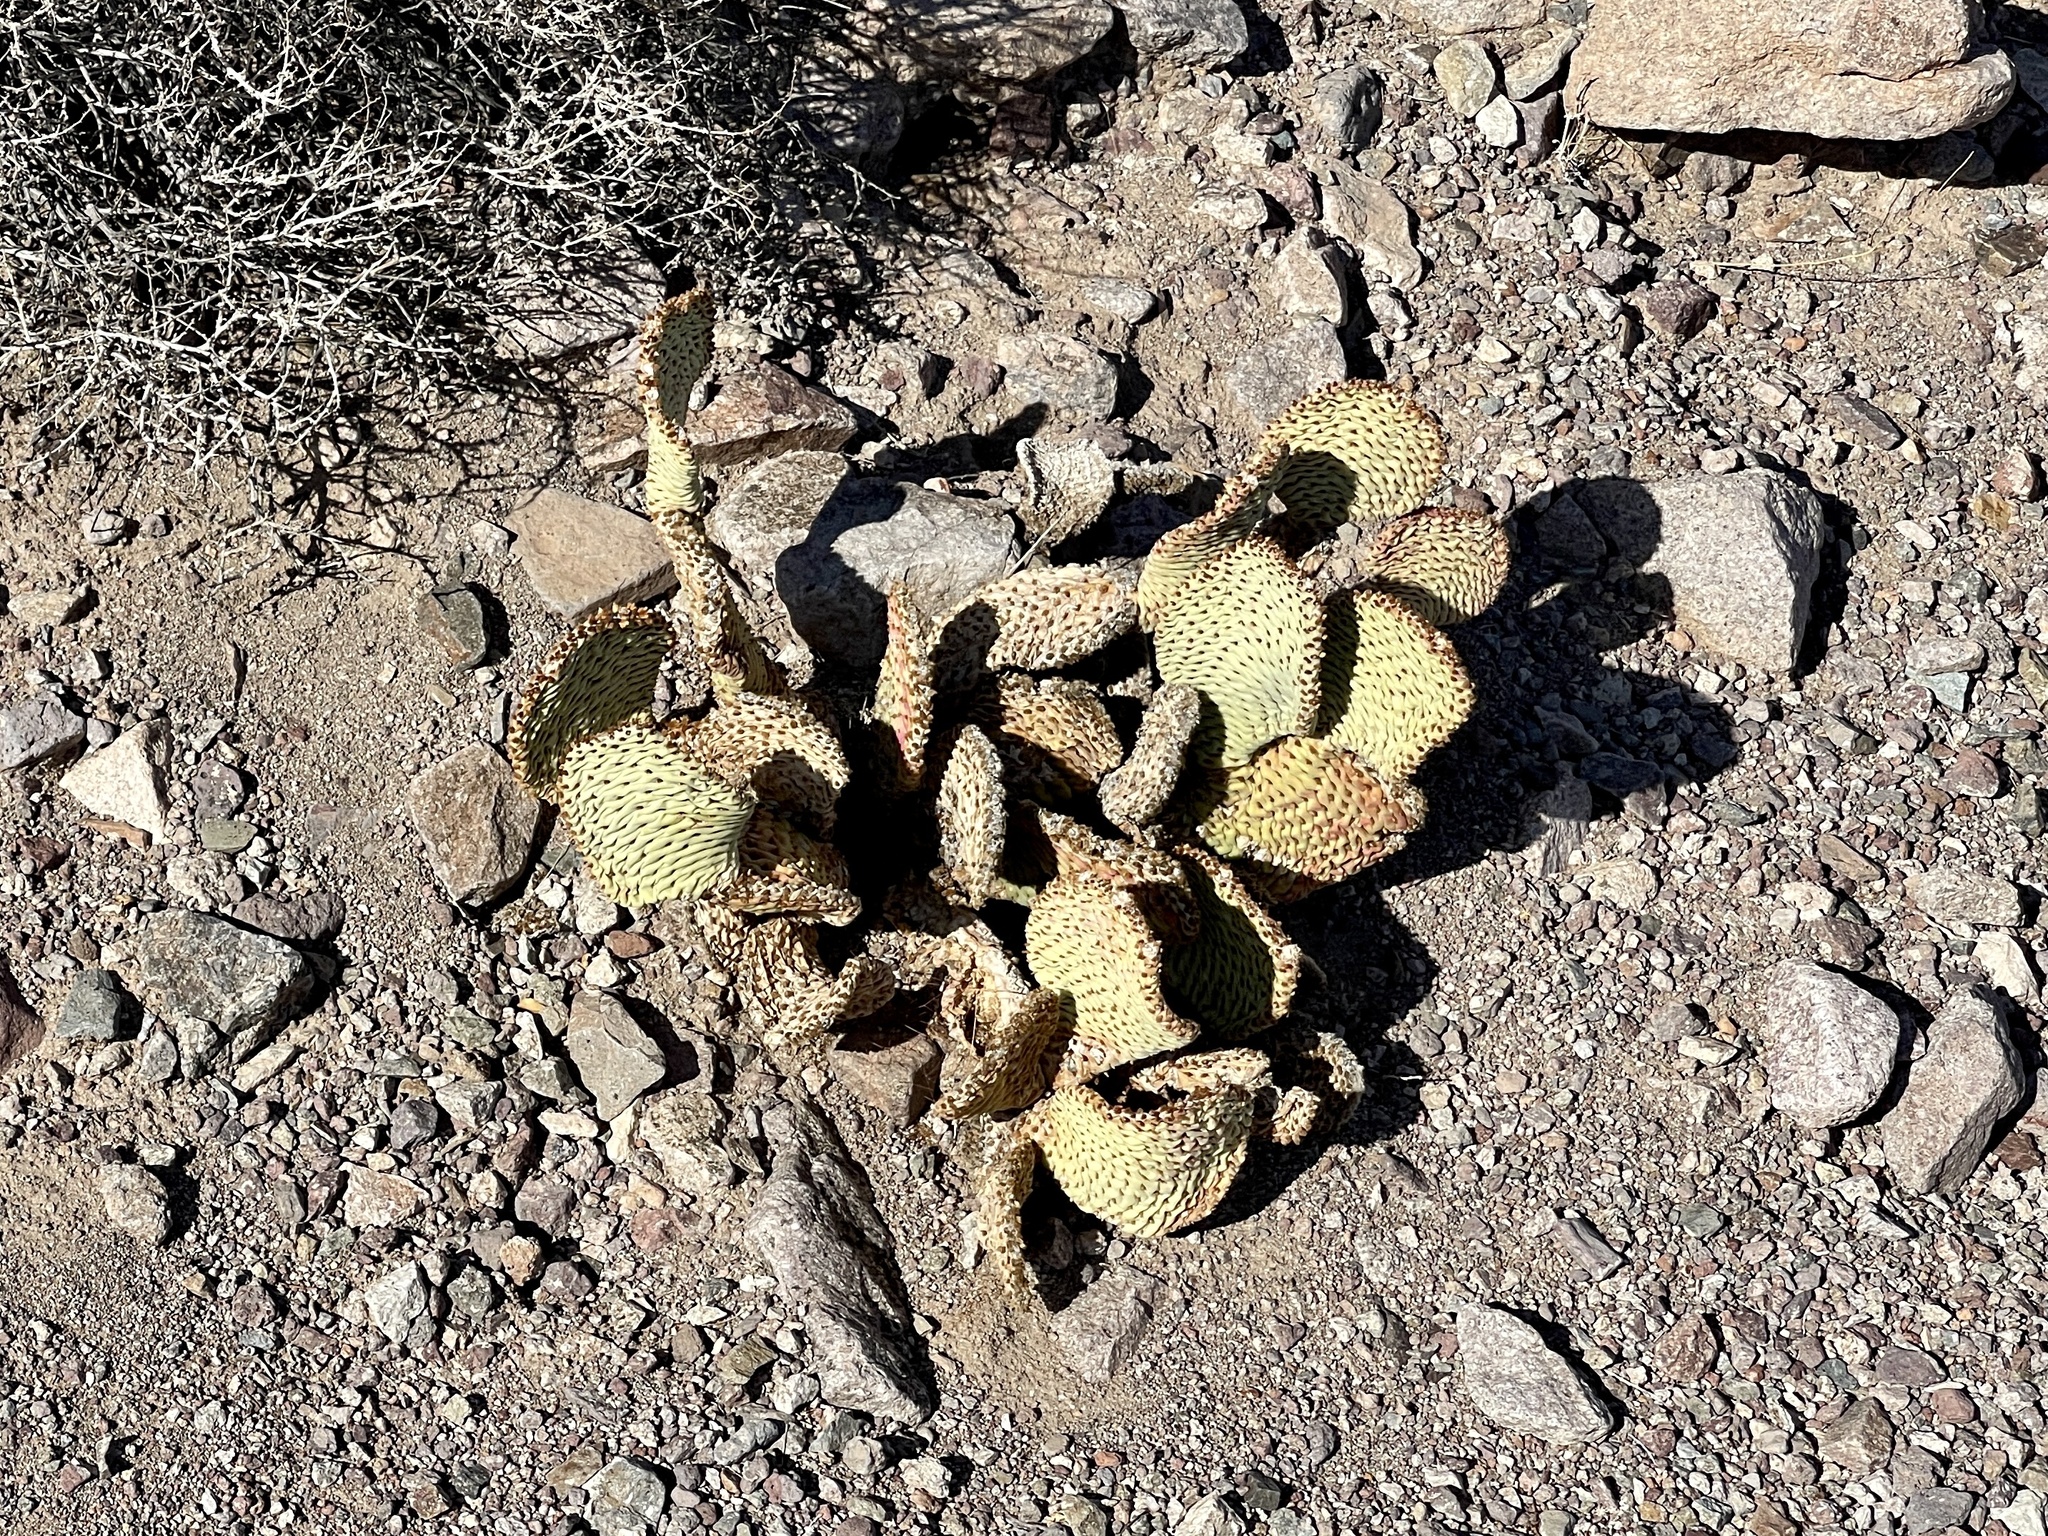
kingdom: Plantae
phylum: Tracheophyta
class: Magnoliopsida
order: Caryophyllales
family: Cactaceae
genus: Opuntia
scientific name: Opuntia basilaris
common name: Beavertail prickly-pear
